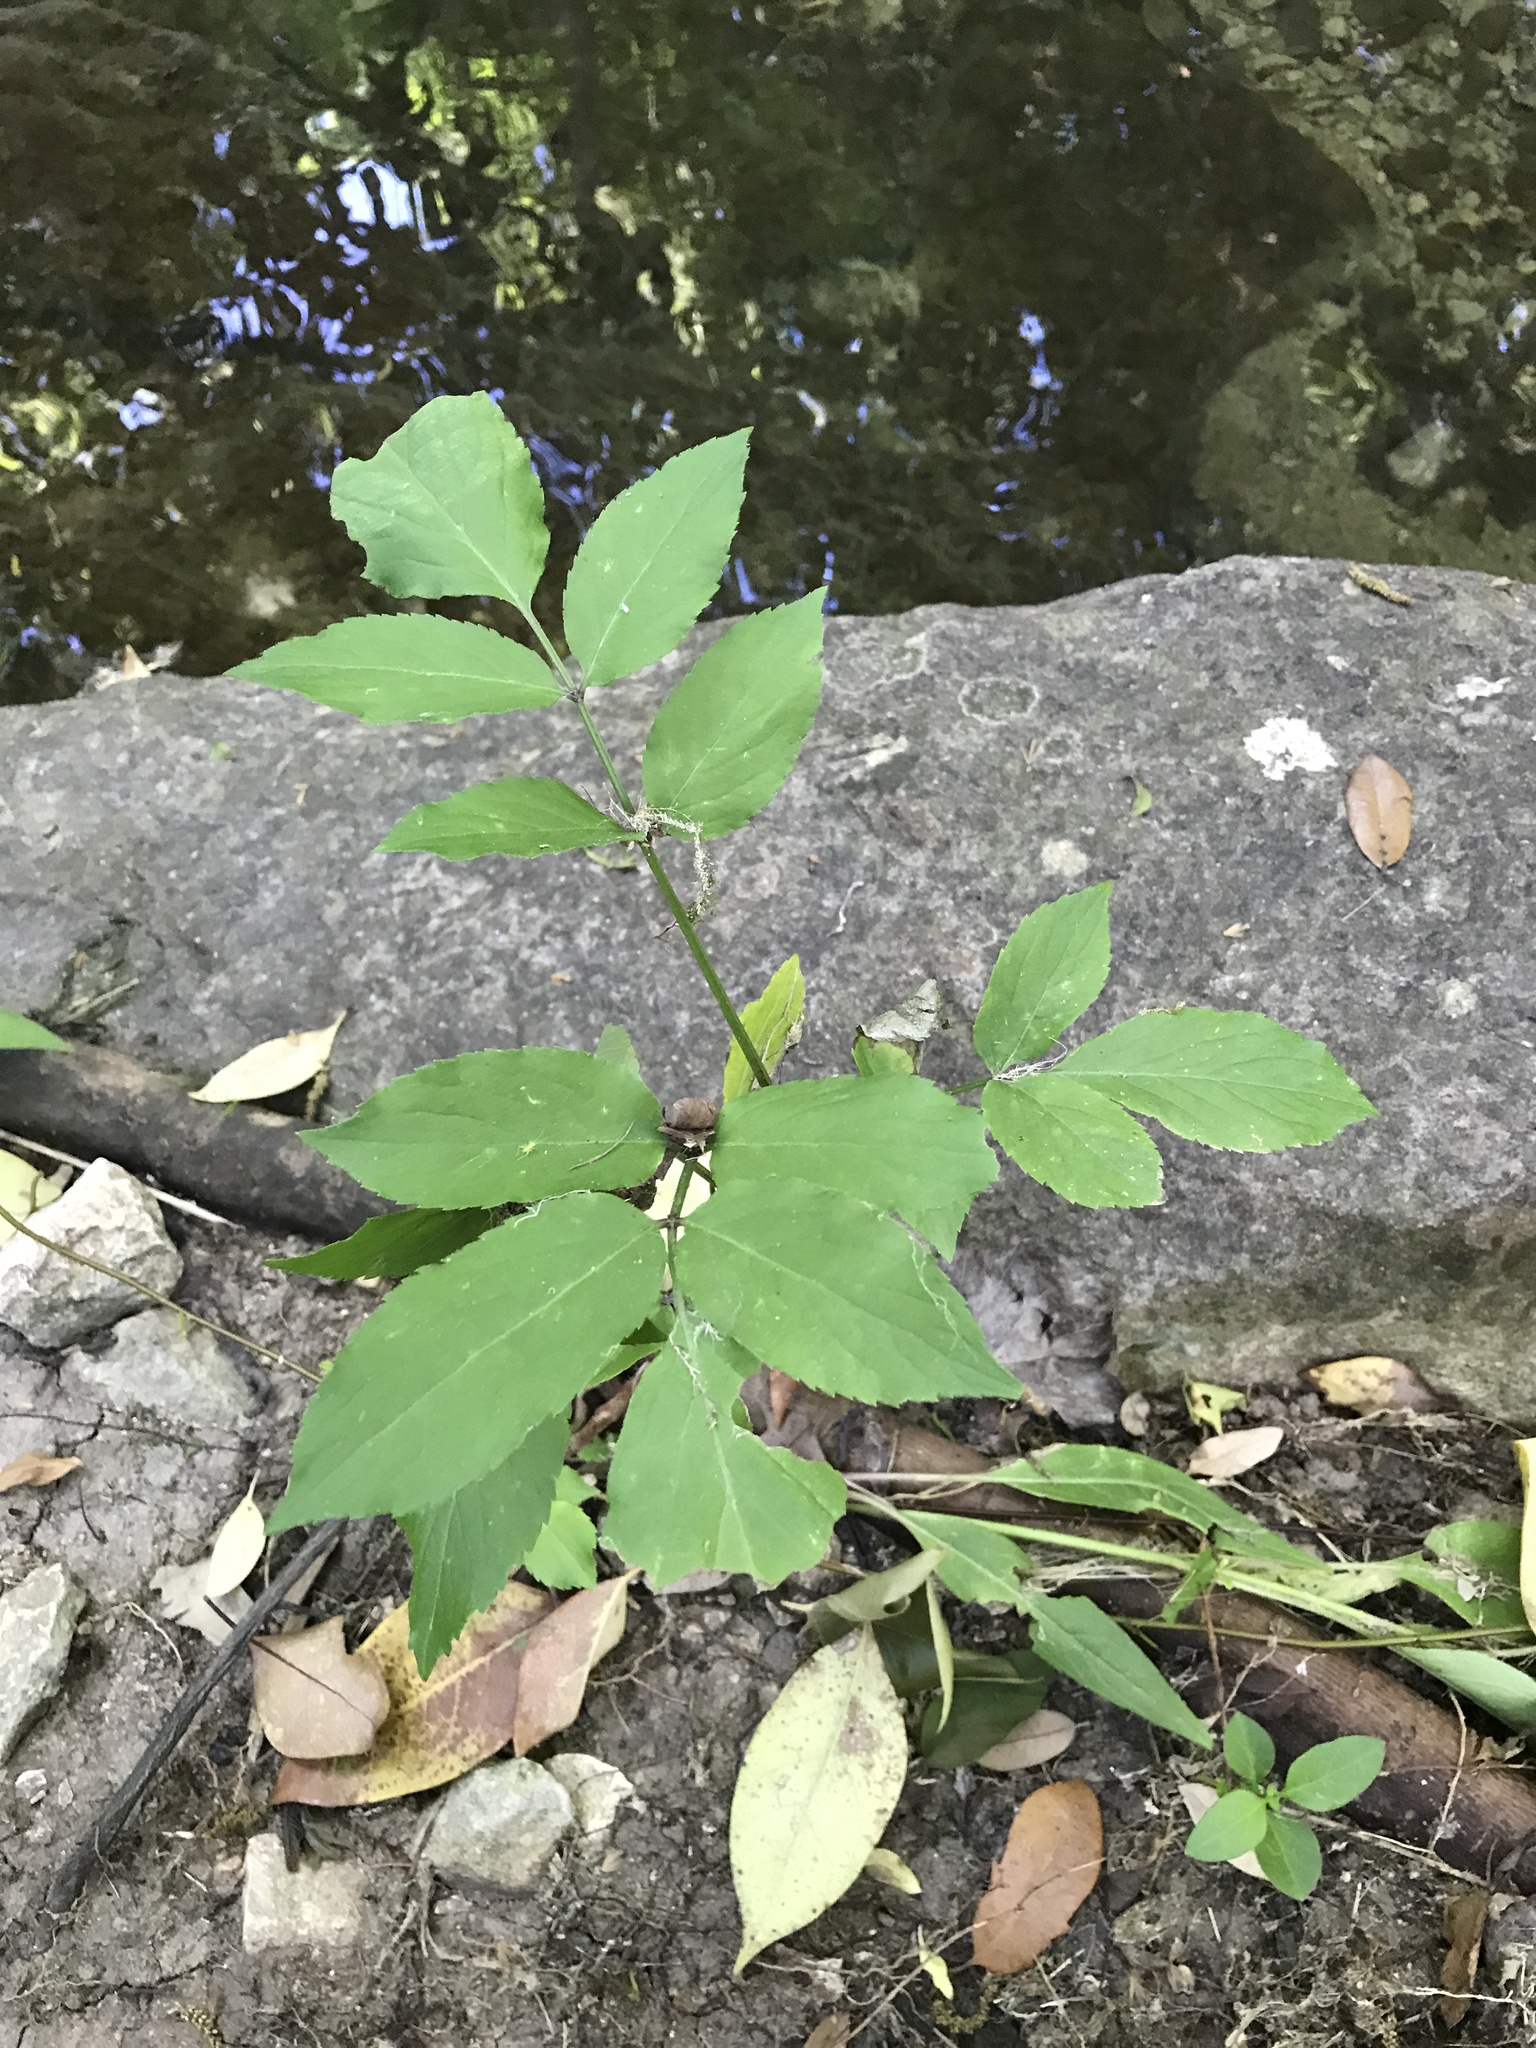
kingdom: Plantae
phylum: Tracheophyta
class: Magnoliopsida
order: Dipsacales
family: Viburnaceae
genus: Sambucus
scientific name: Sambucus canadensis
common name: American elder
